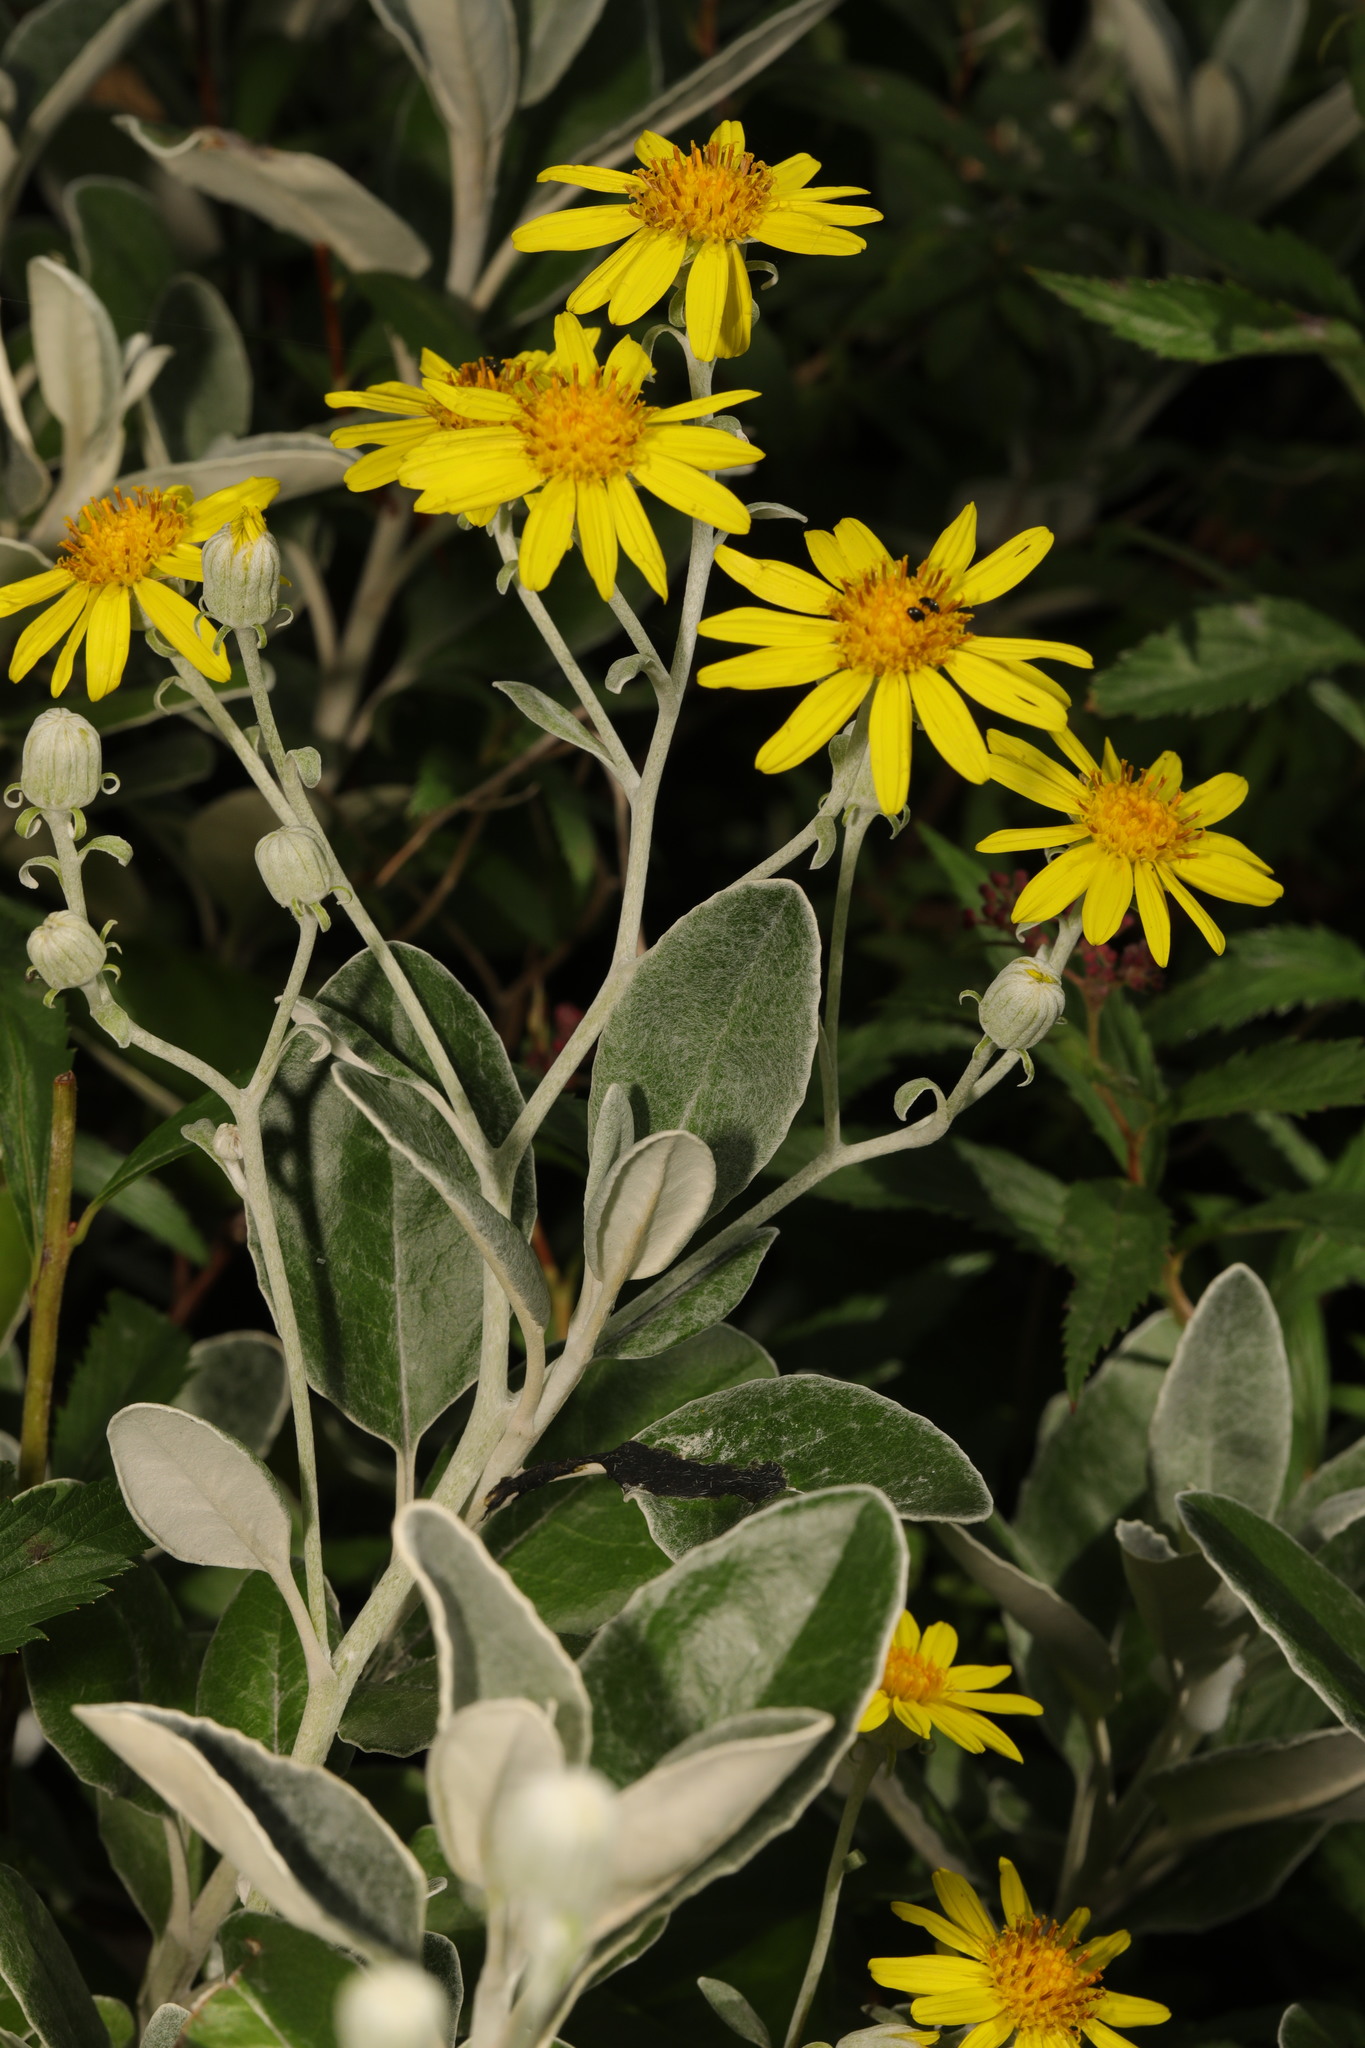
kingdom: Plantae
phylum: Tracheophyta
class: Magnoliopsida
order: Asterales
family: Asteraceae
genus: Brachyglottis
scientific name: Brachyglottis jubar
